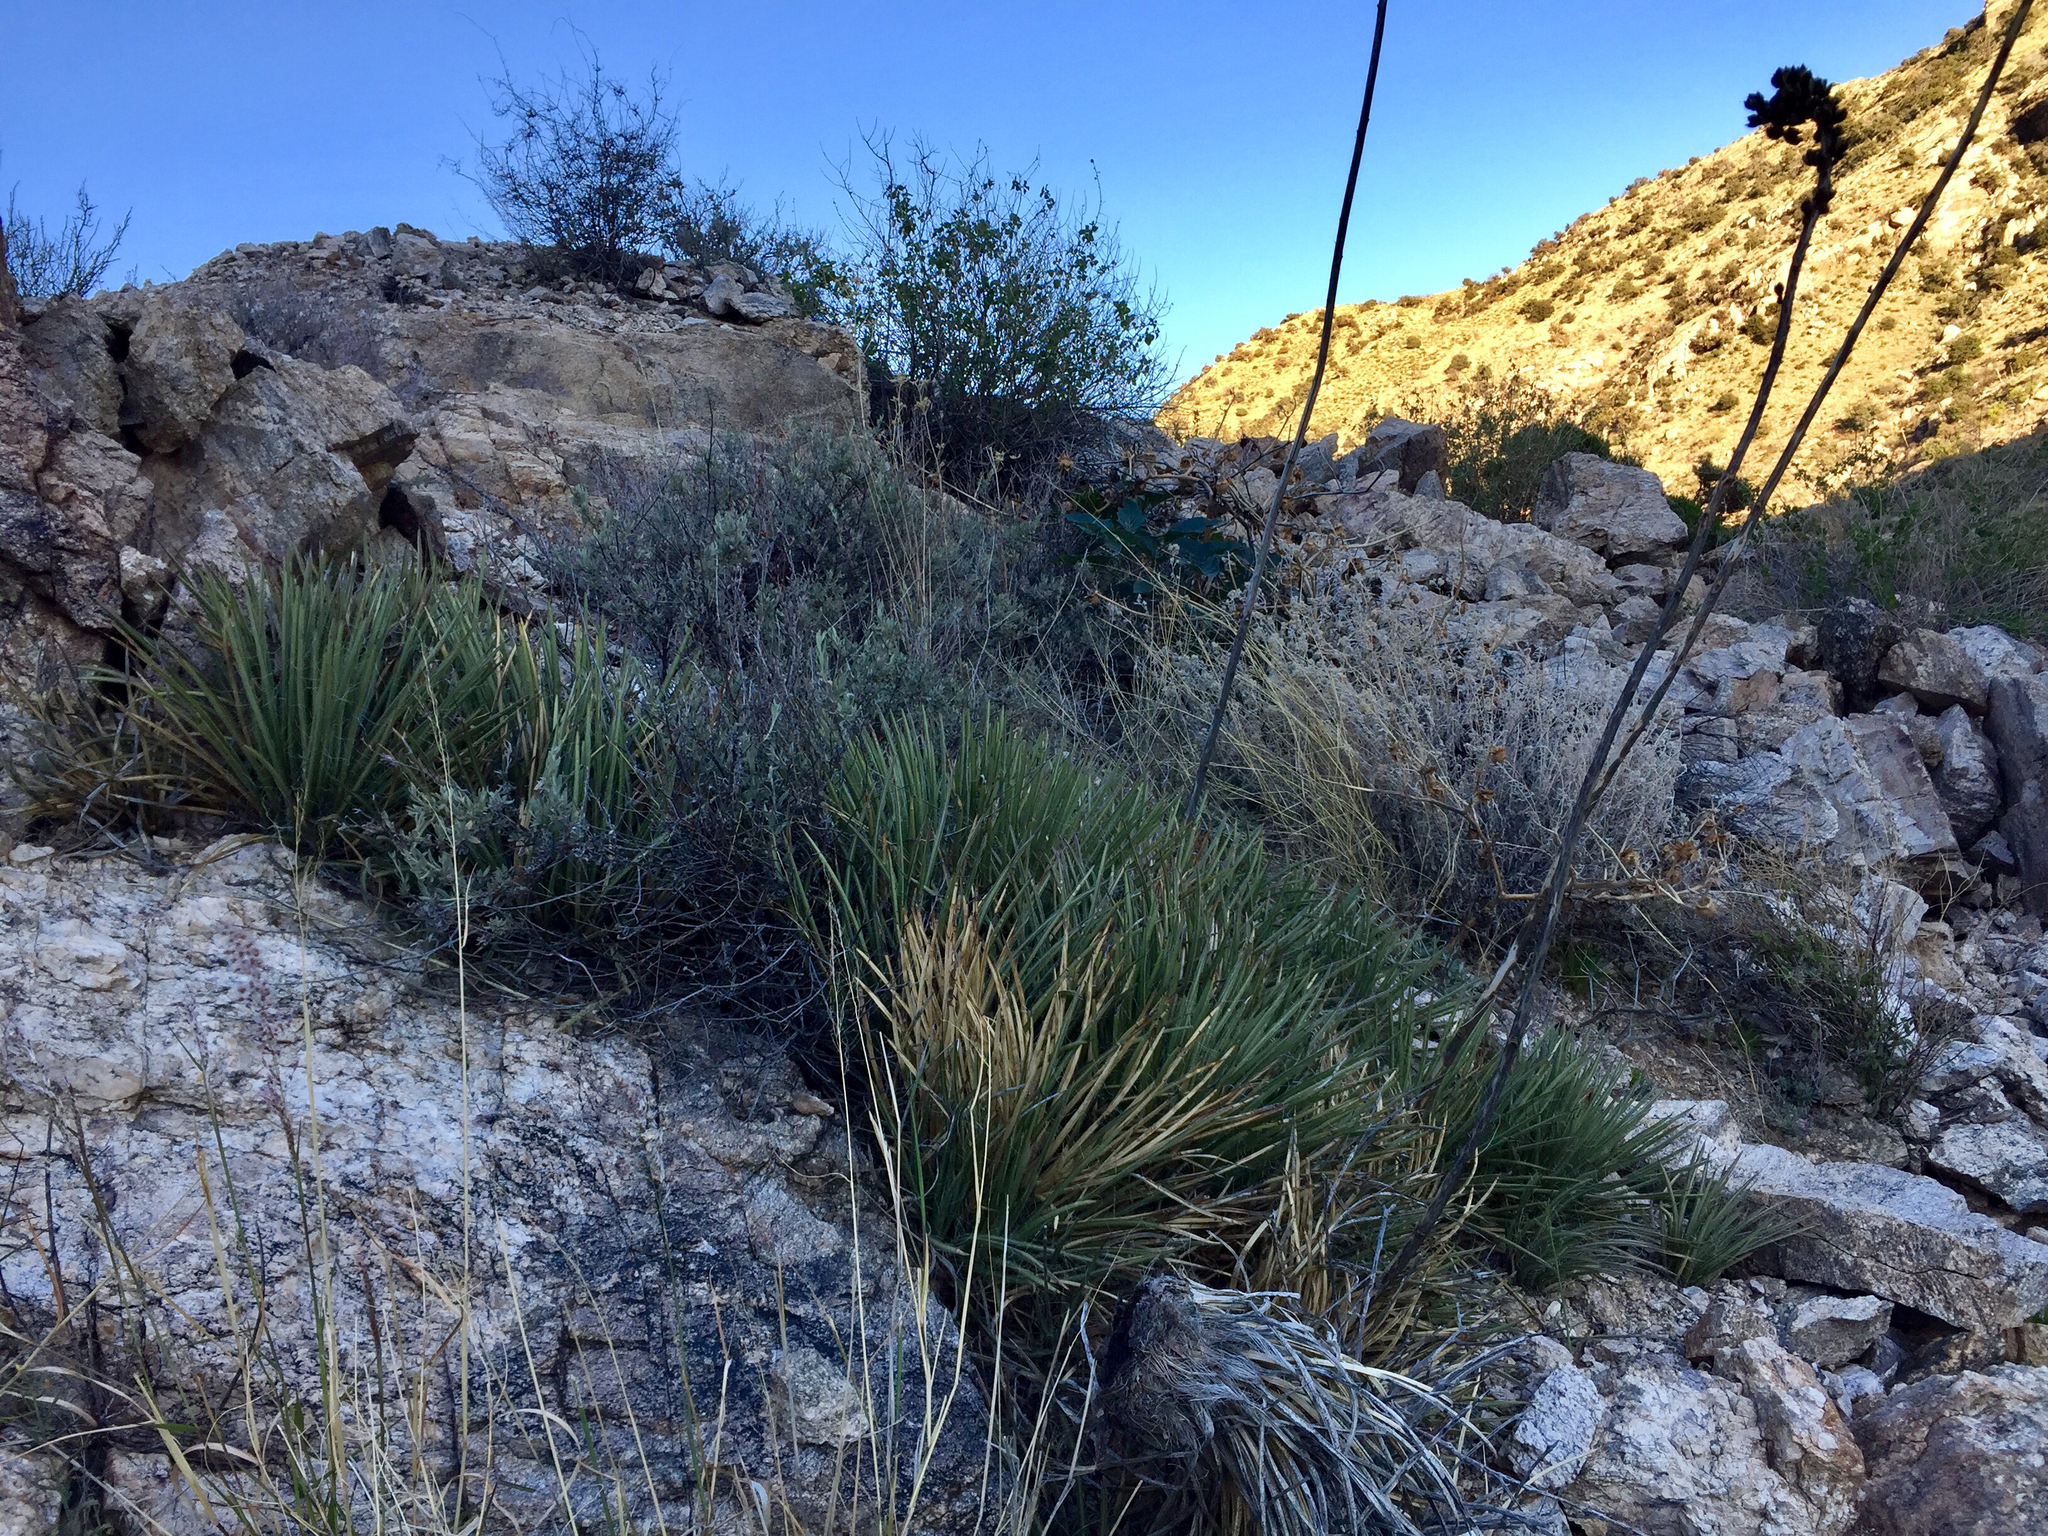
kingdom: Plantae
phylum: Tracheophyta
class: Liliopsida
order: Asparagales
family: Asparagaceae
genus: Agave
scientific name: Agave schottii
